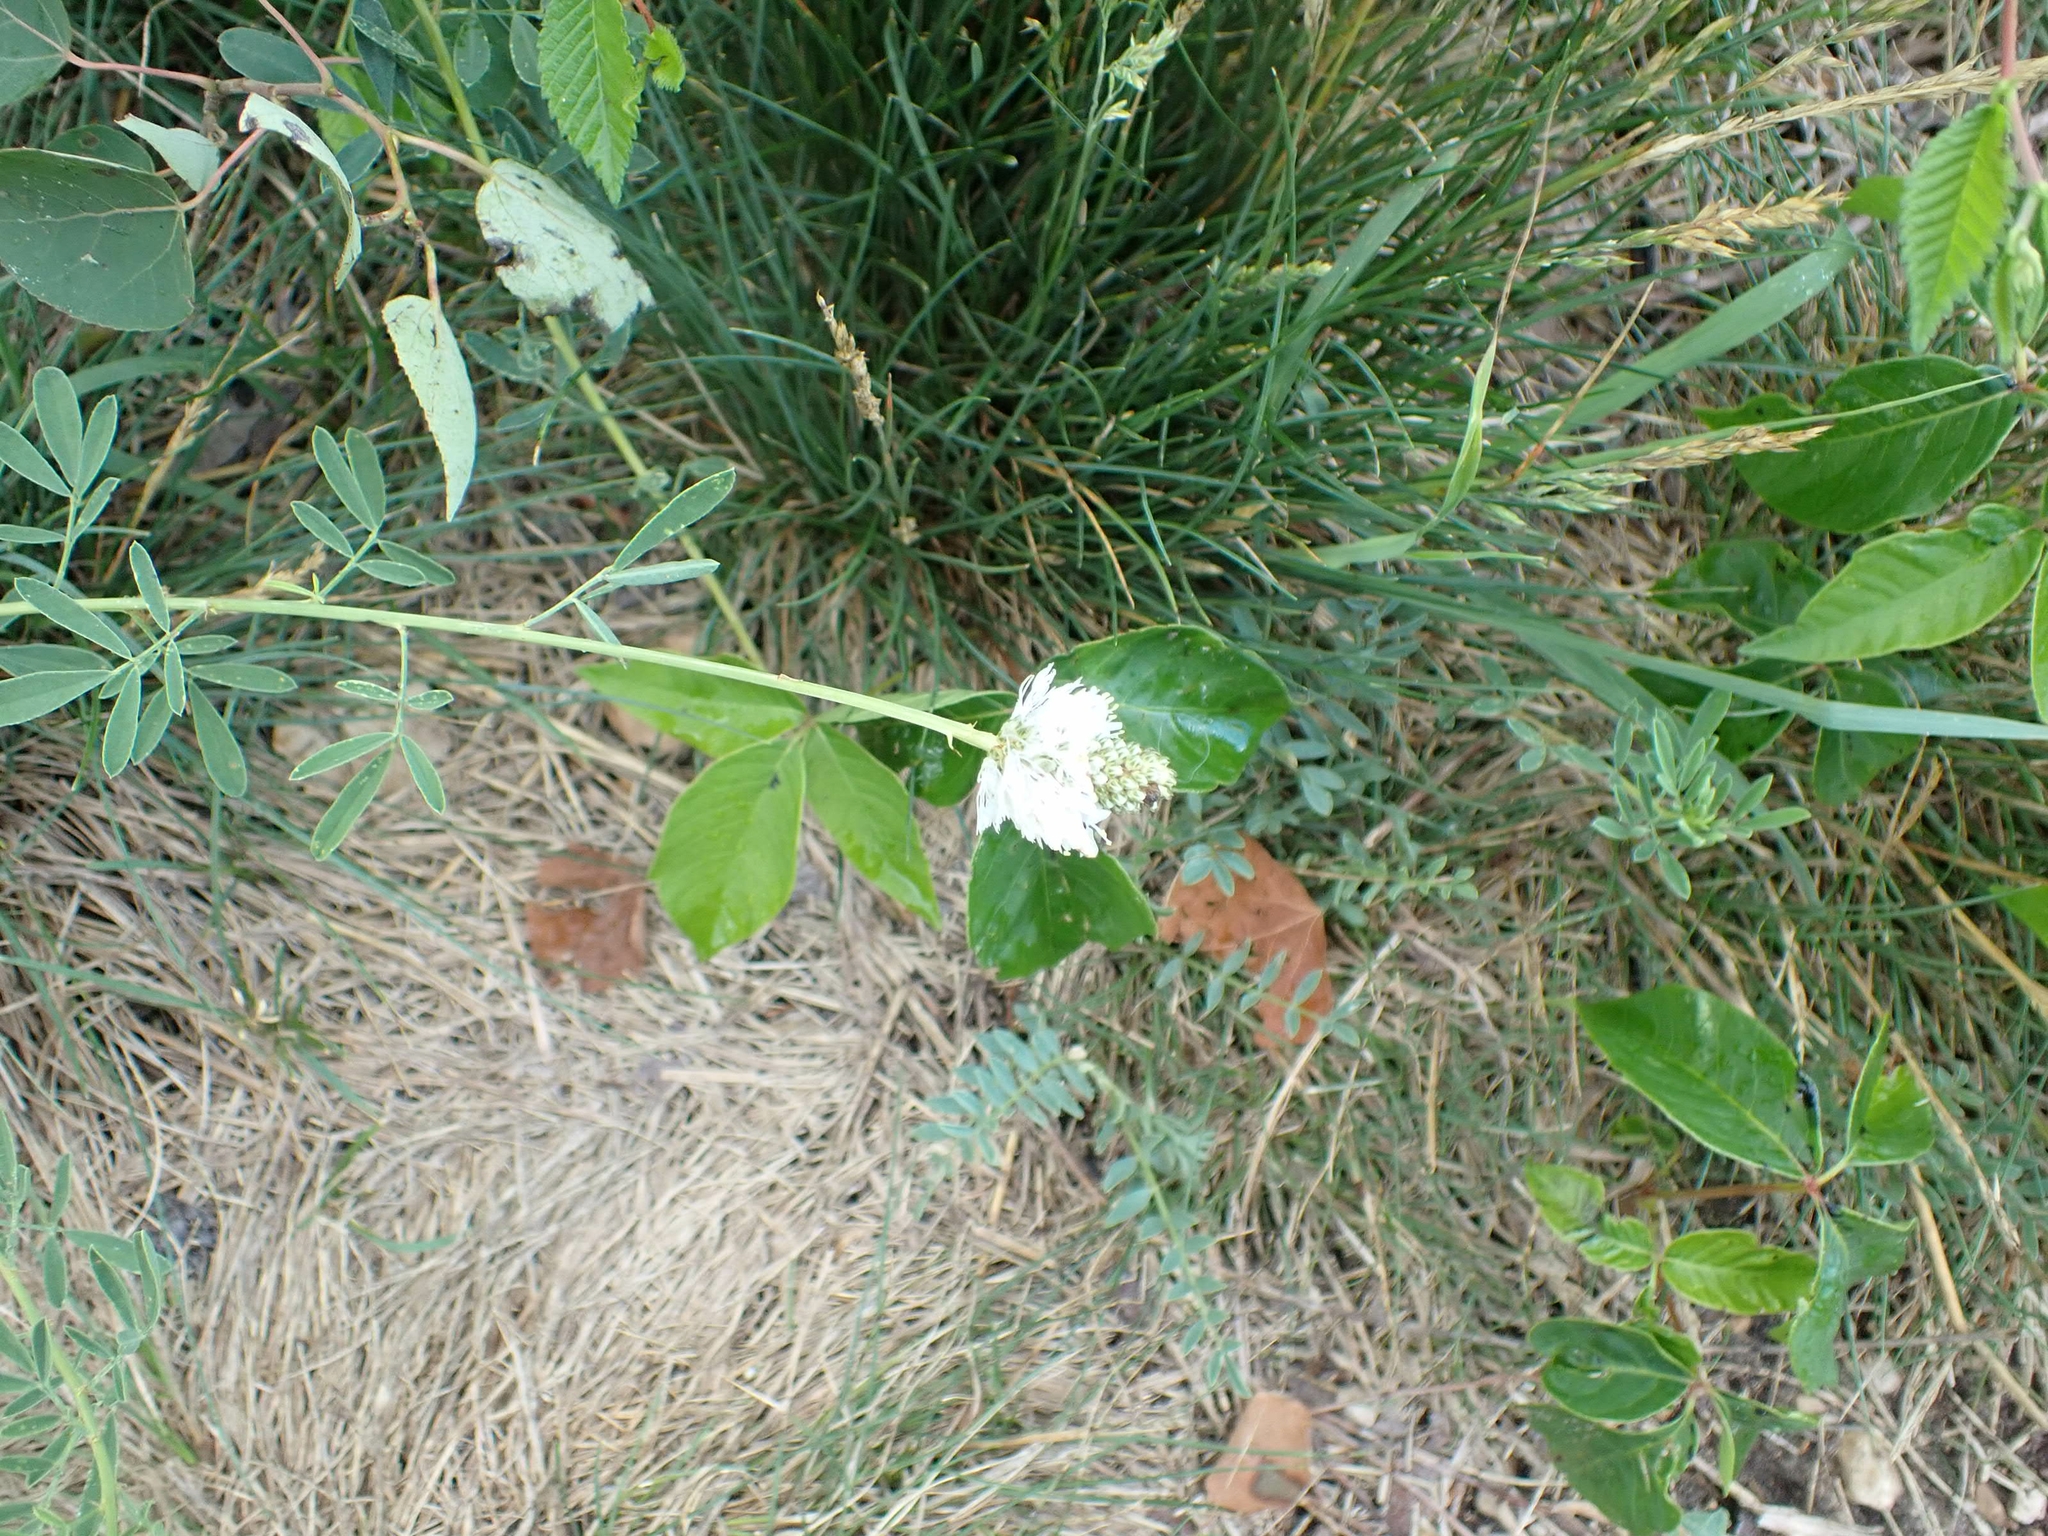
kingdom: Plantae
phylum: Tracheophyta
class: Magnoliopsida
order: Fabales
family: Fabaceae
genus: Dalea
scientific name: Dalea candida
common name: White prairie-clover
